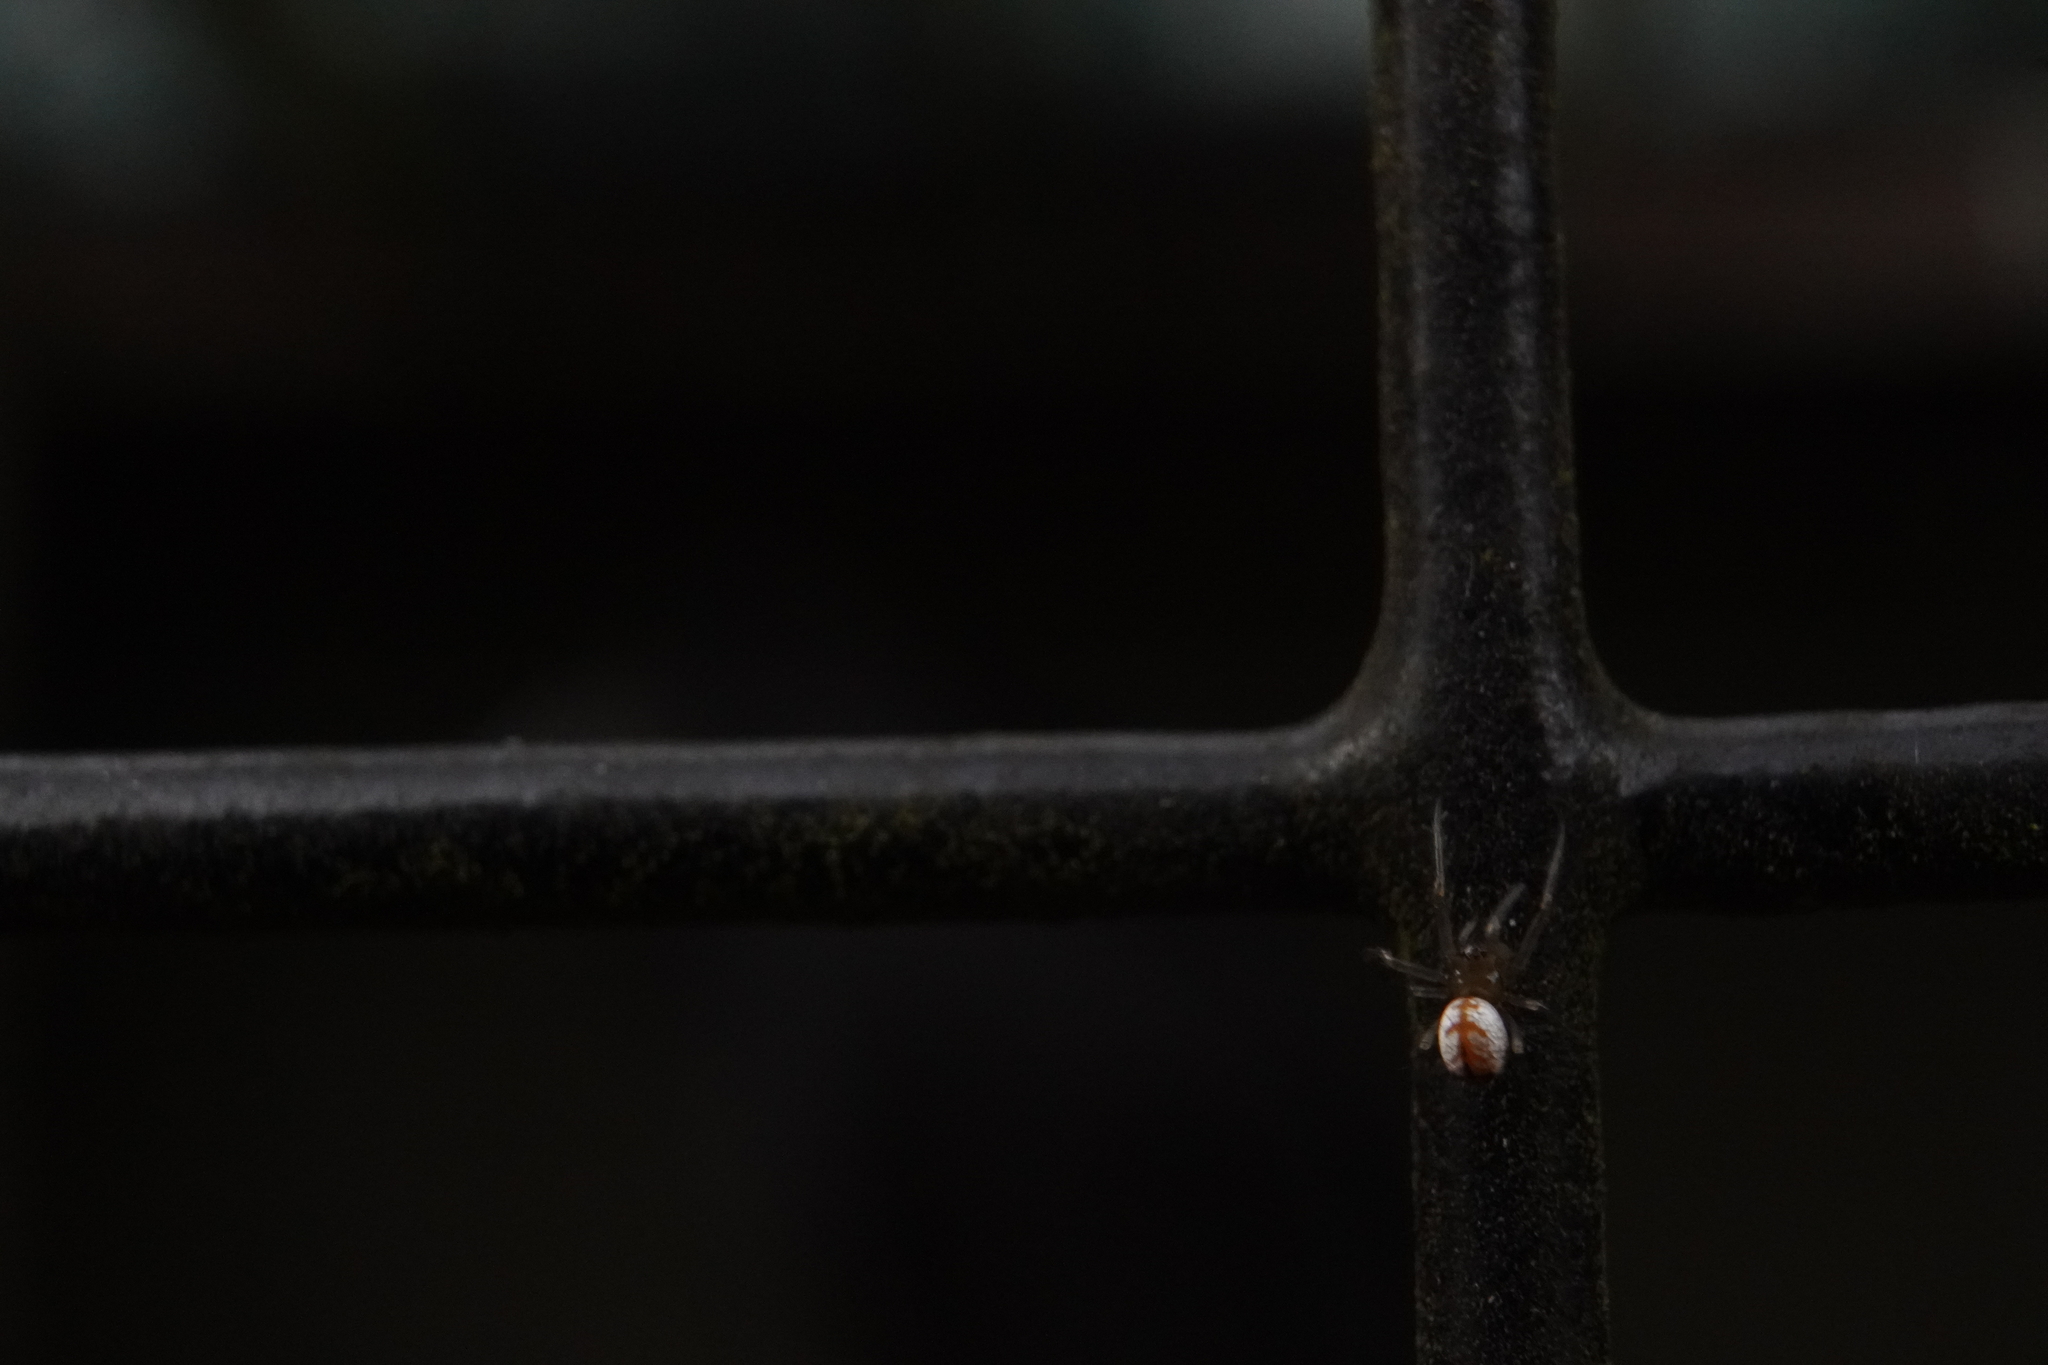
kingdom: Animalia
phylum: Arthropoda
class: Arachnida
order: Araneae
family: Tetragnathidae
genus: Leucauge
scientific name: Leucauge venusta
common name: Longjawed orb weavers
